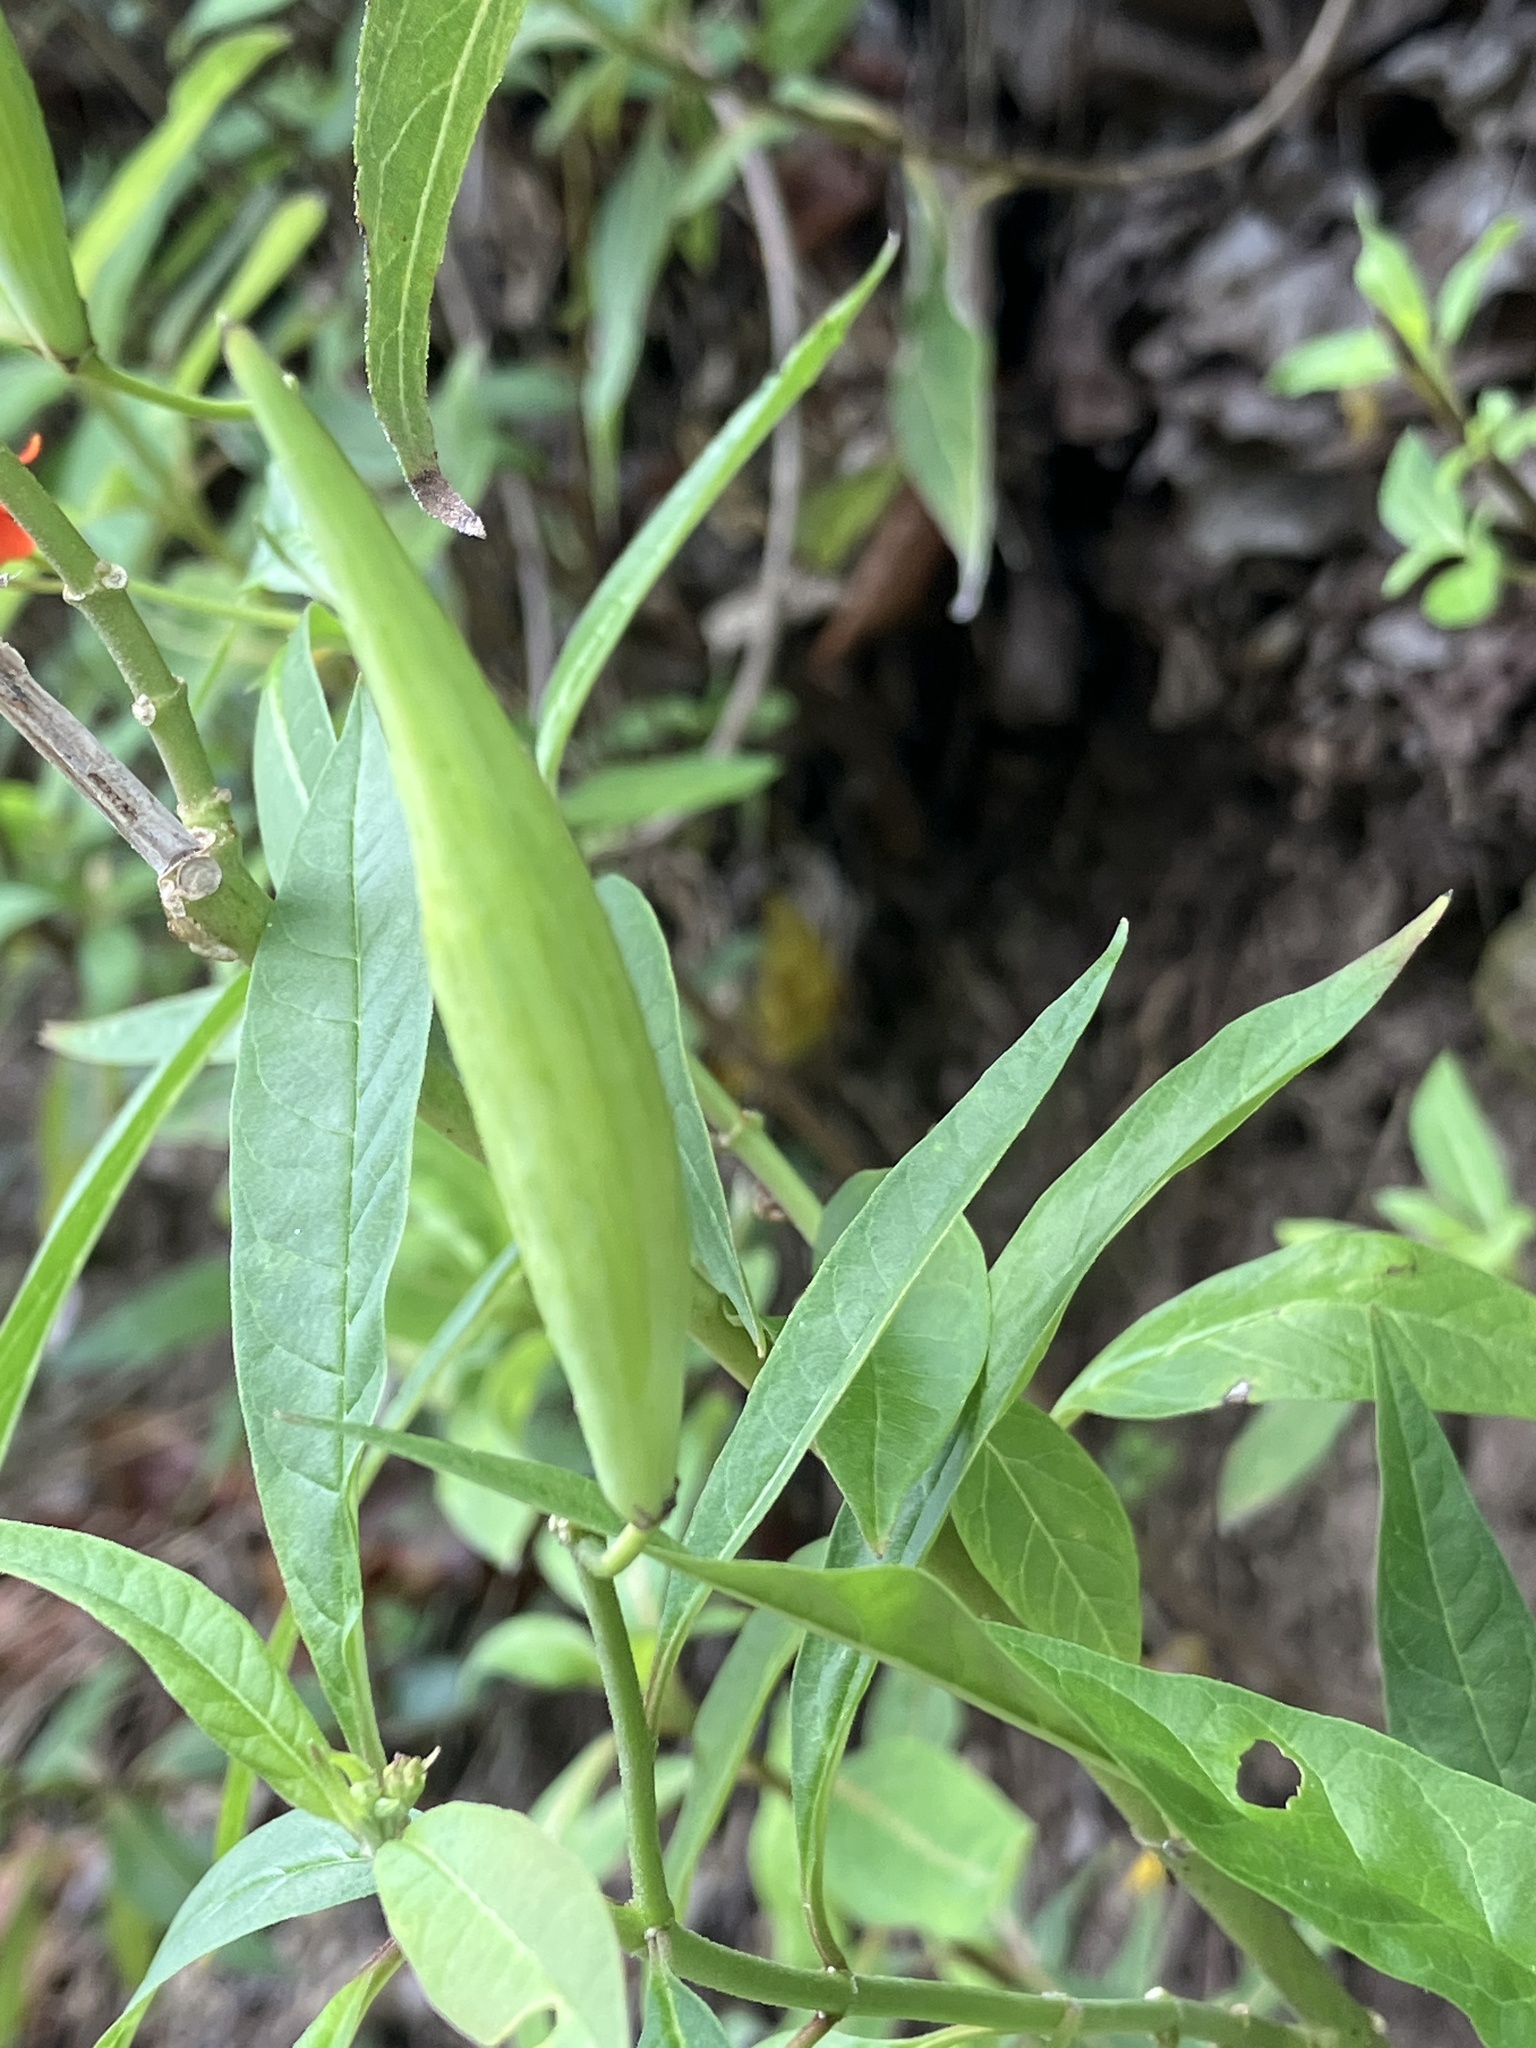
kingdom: Plantae
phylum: Tracheophyta
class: Magnoliopsida
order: Gentianales
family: Apocynaceae
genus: Asclepias
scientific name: Asclepias curassavica
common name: Bloodflower
